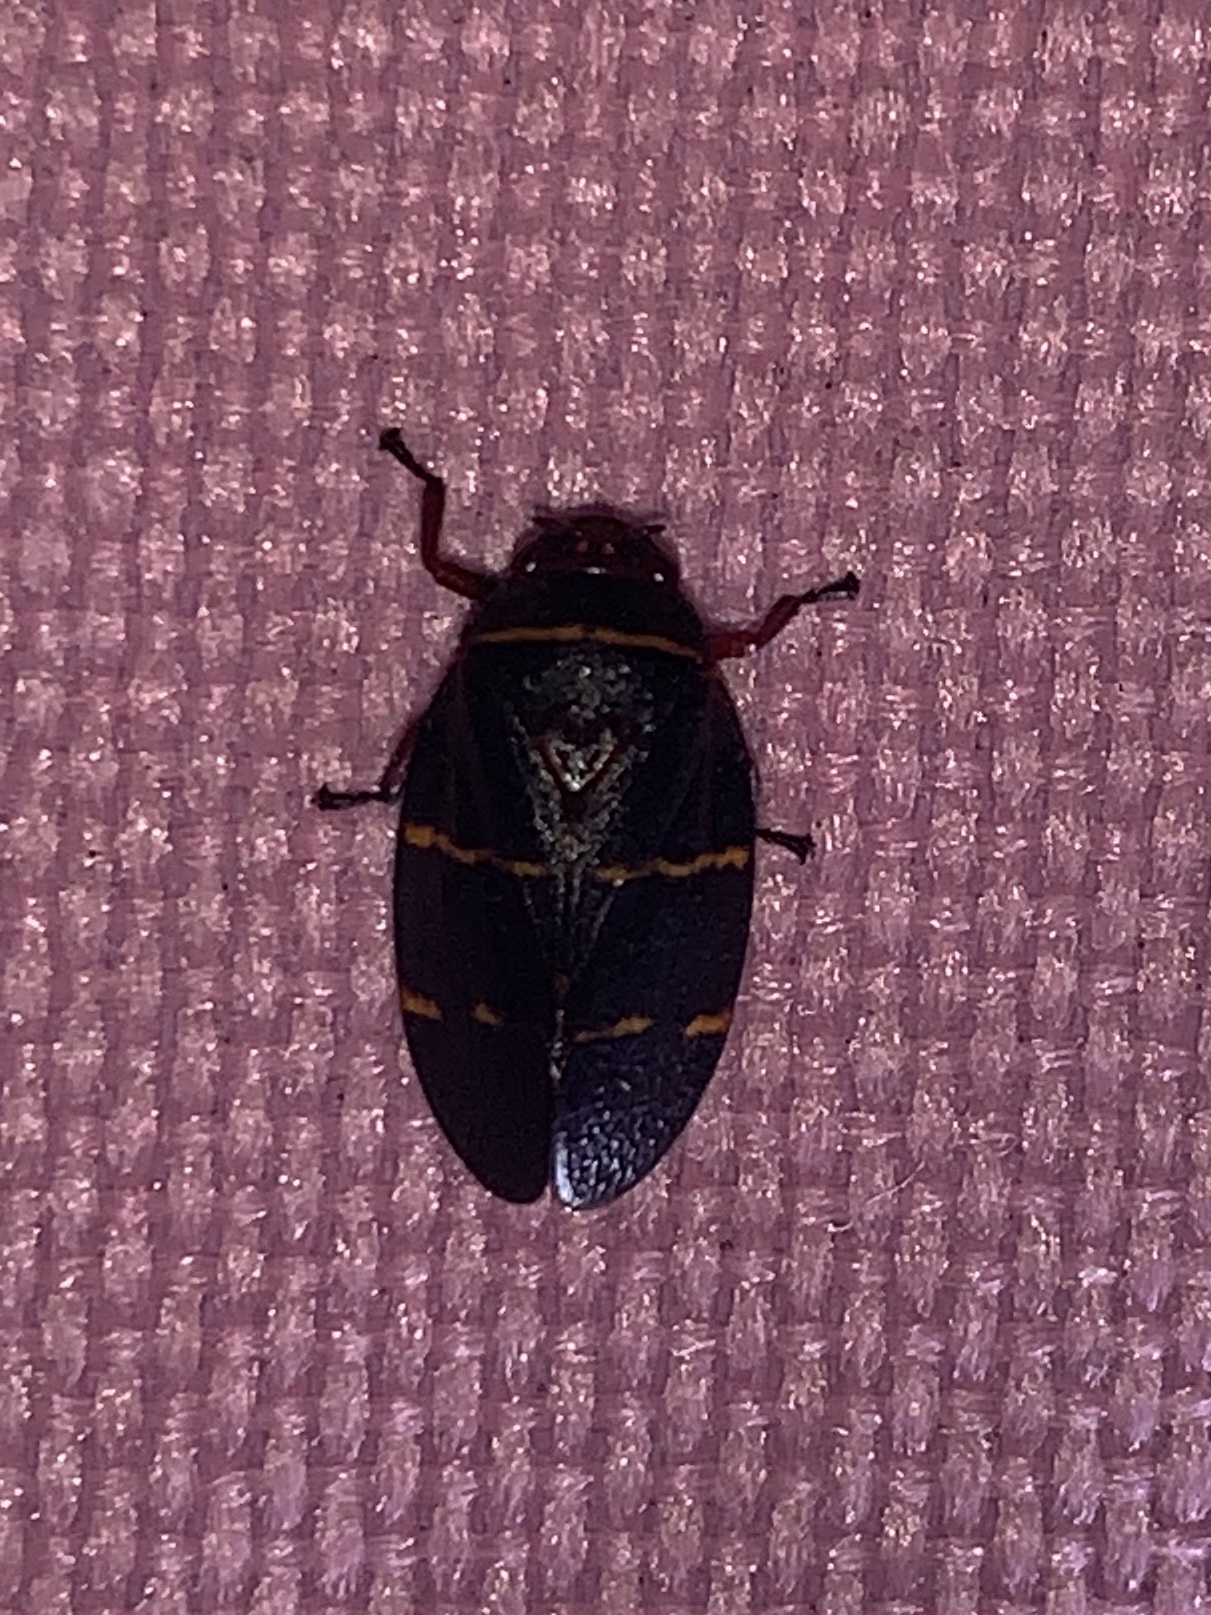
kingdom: Animalia
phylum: Arthropoda
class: Insecta
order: Hemiptera
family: Cercopidae
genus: Prosapia
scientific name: Prosapia bicincta
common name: Twolined spittlebug
